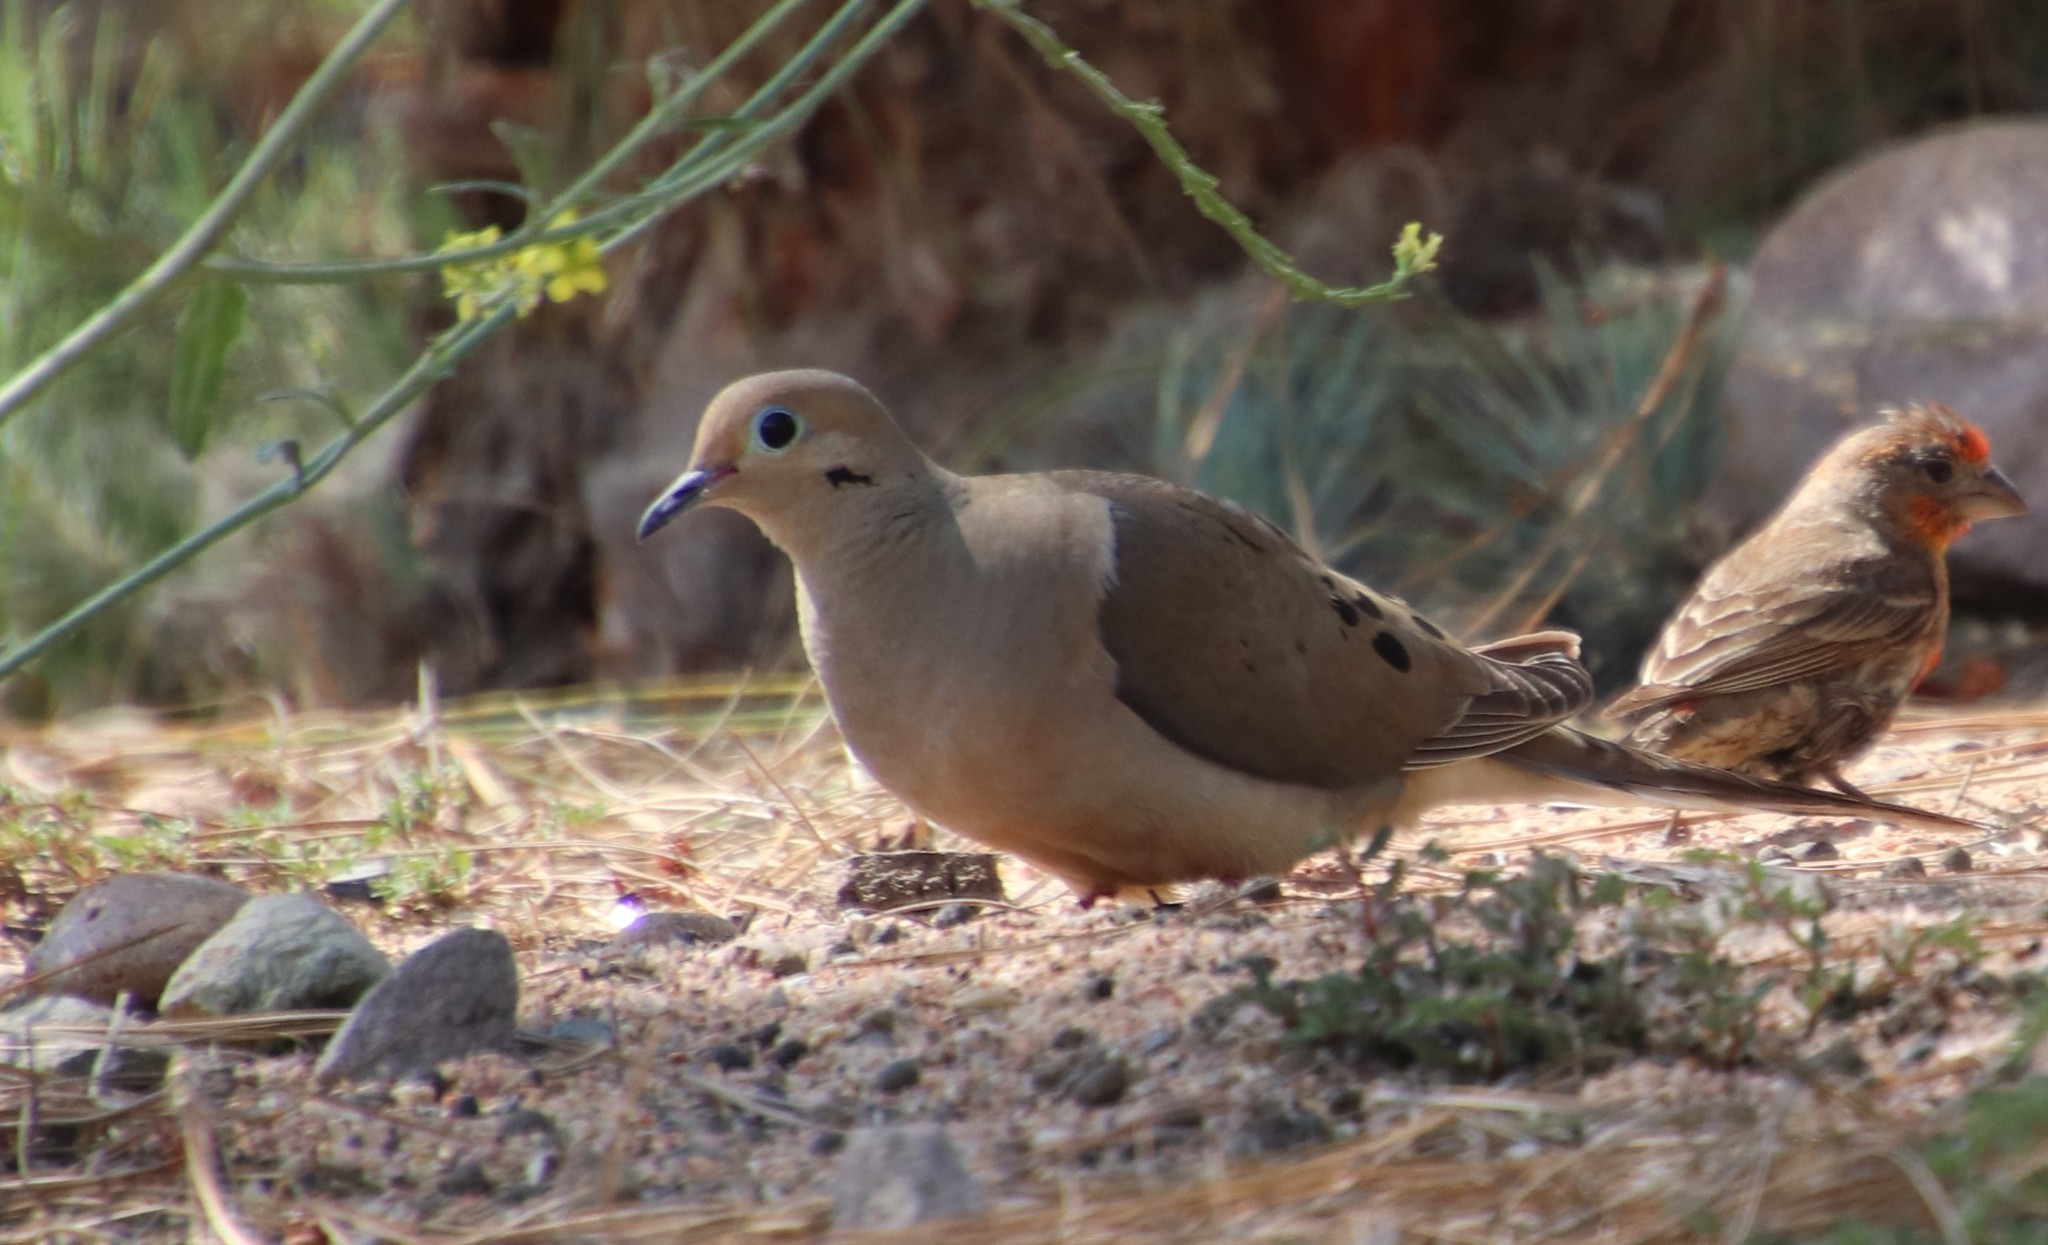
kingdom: Animalia
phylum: Chordata
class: Aves
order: Columbiformes
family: Columbidae
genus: Zenaida
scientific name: Zenaida macroura
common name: Mourning dove
